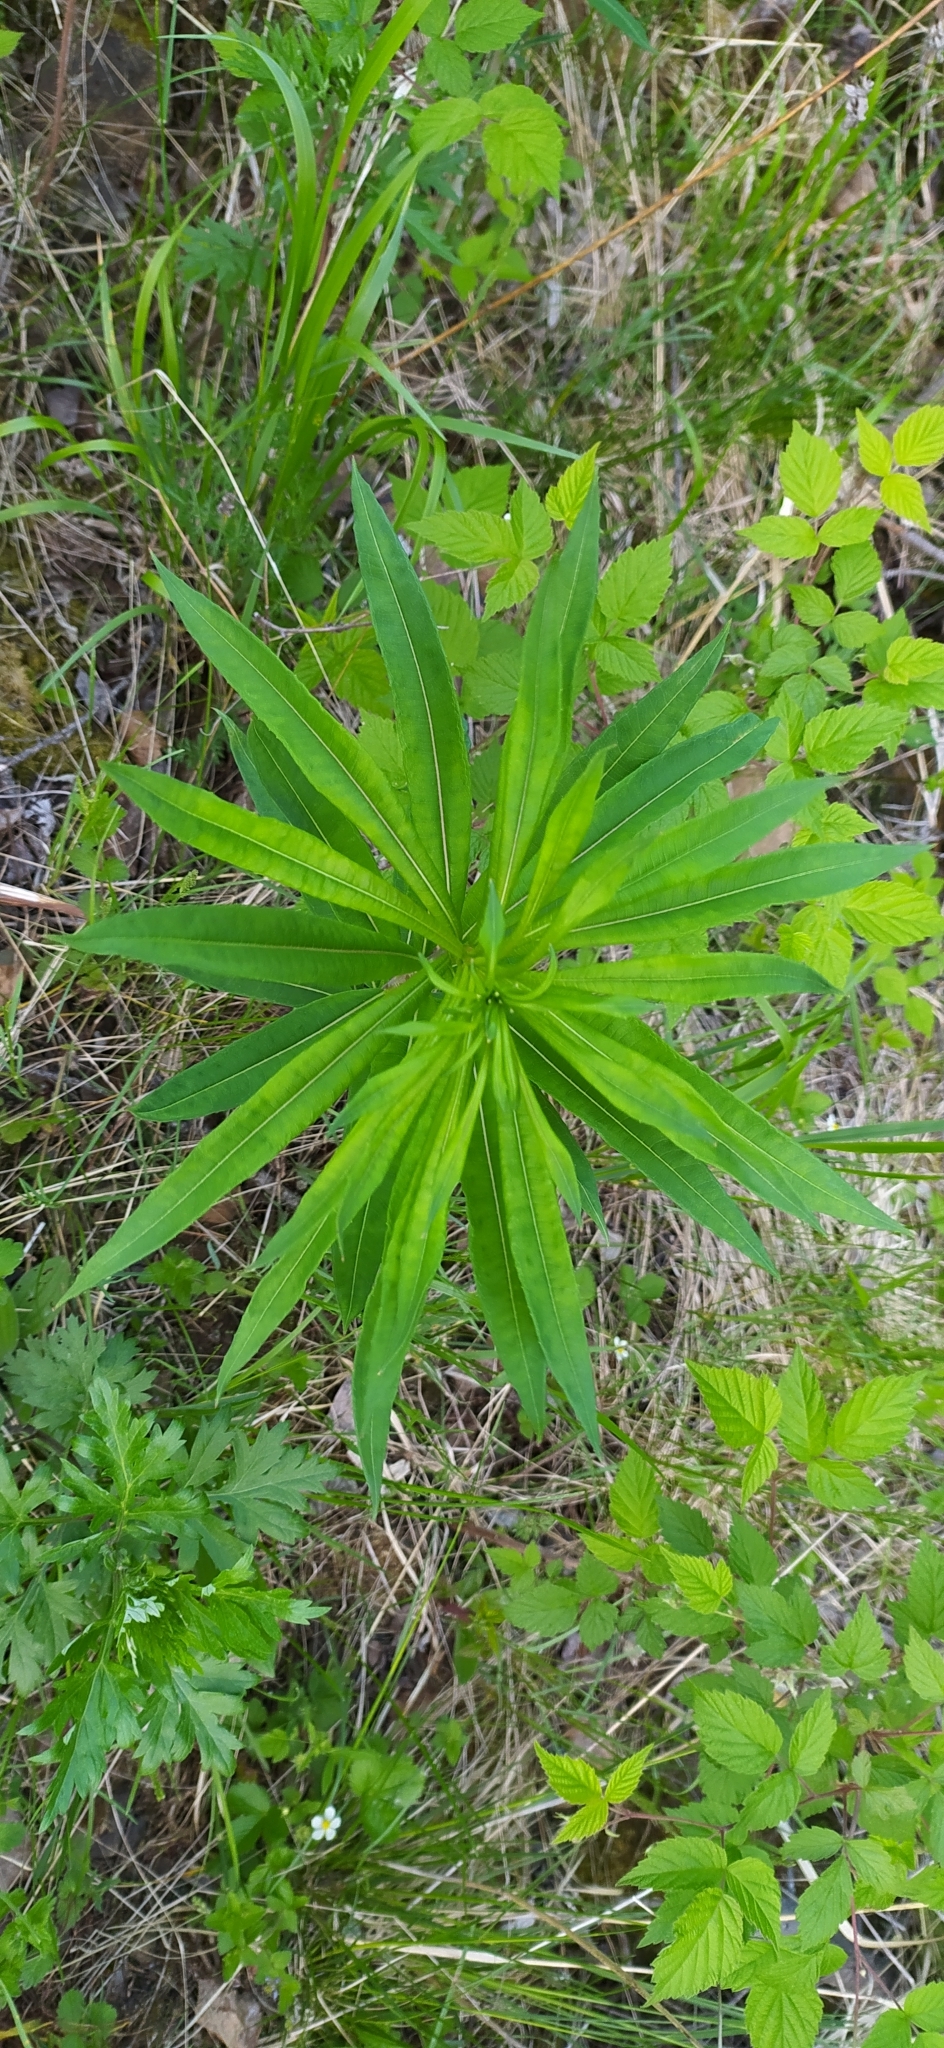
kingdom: Plantae
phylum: Tracheophyta
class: Magnoliopsida
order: Myrtales
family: Onagraceae
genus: Chamaenerion
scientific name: Chamaenerion angustifolium
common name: Fireweed
